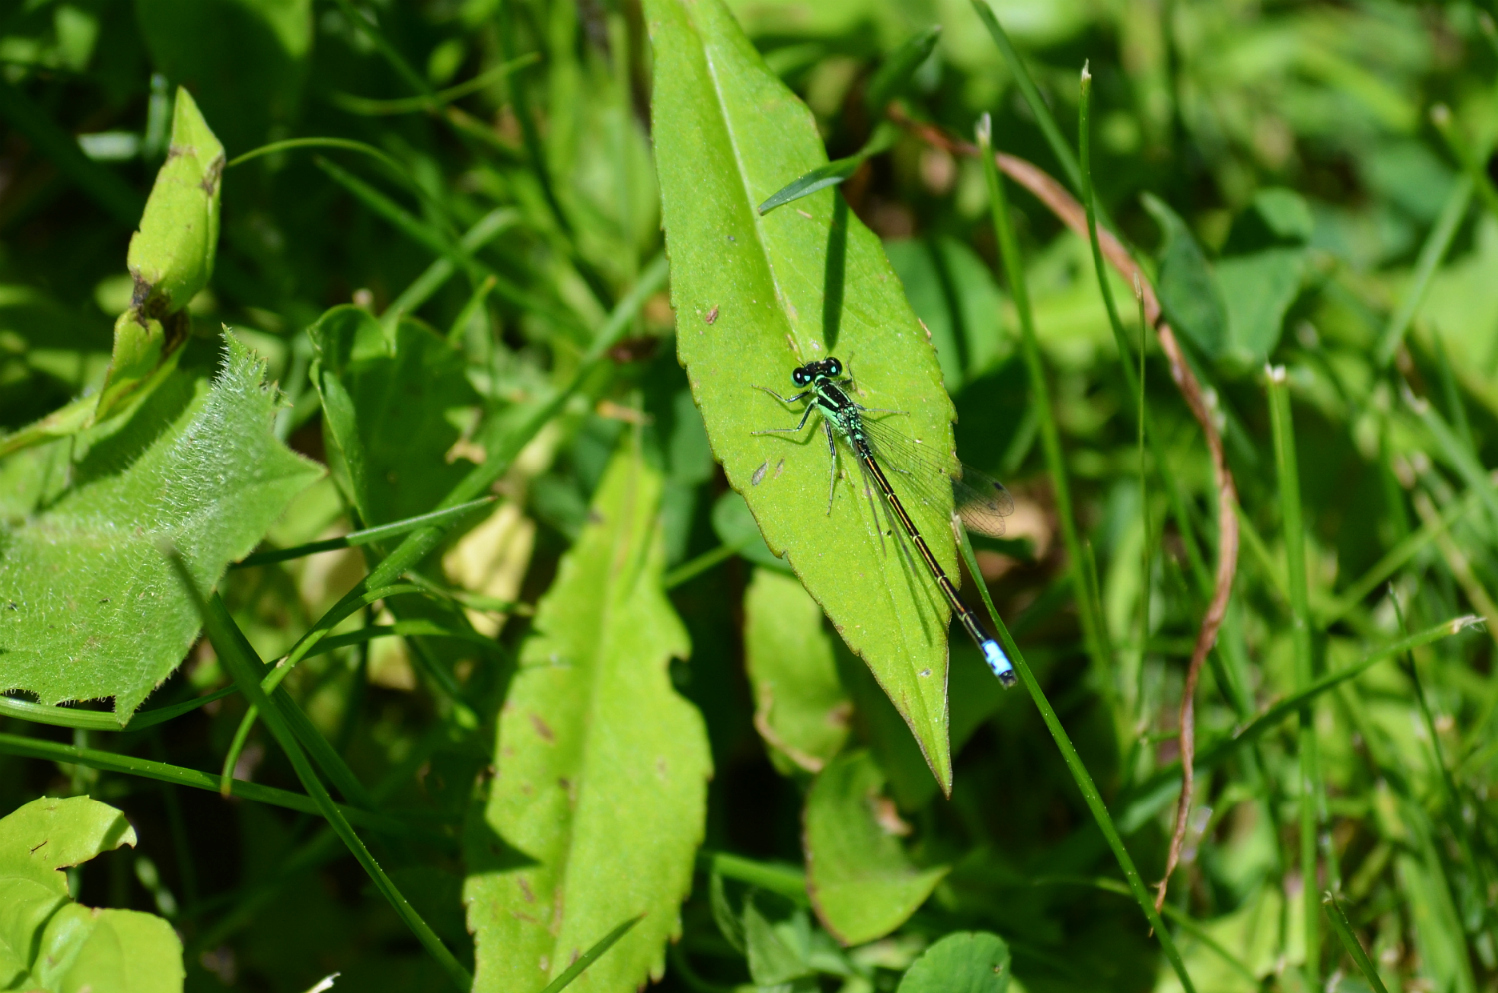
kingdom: Animalia
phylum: Arthropoda
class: Insecta
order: Odonata
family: Coenagrionidae
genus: Ischnura
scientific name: Ischnura verticalis
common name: Eastern forktail
